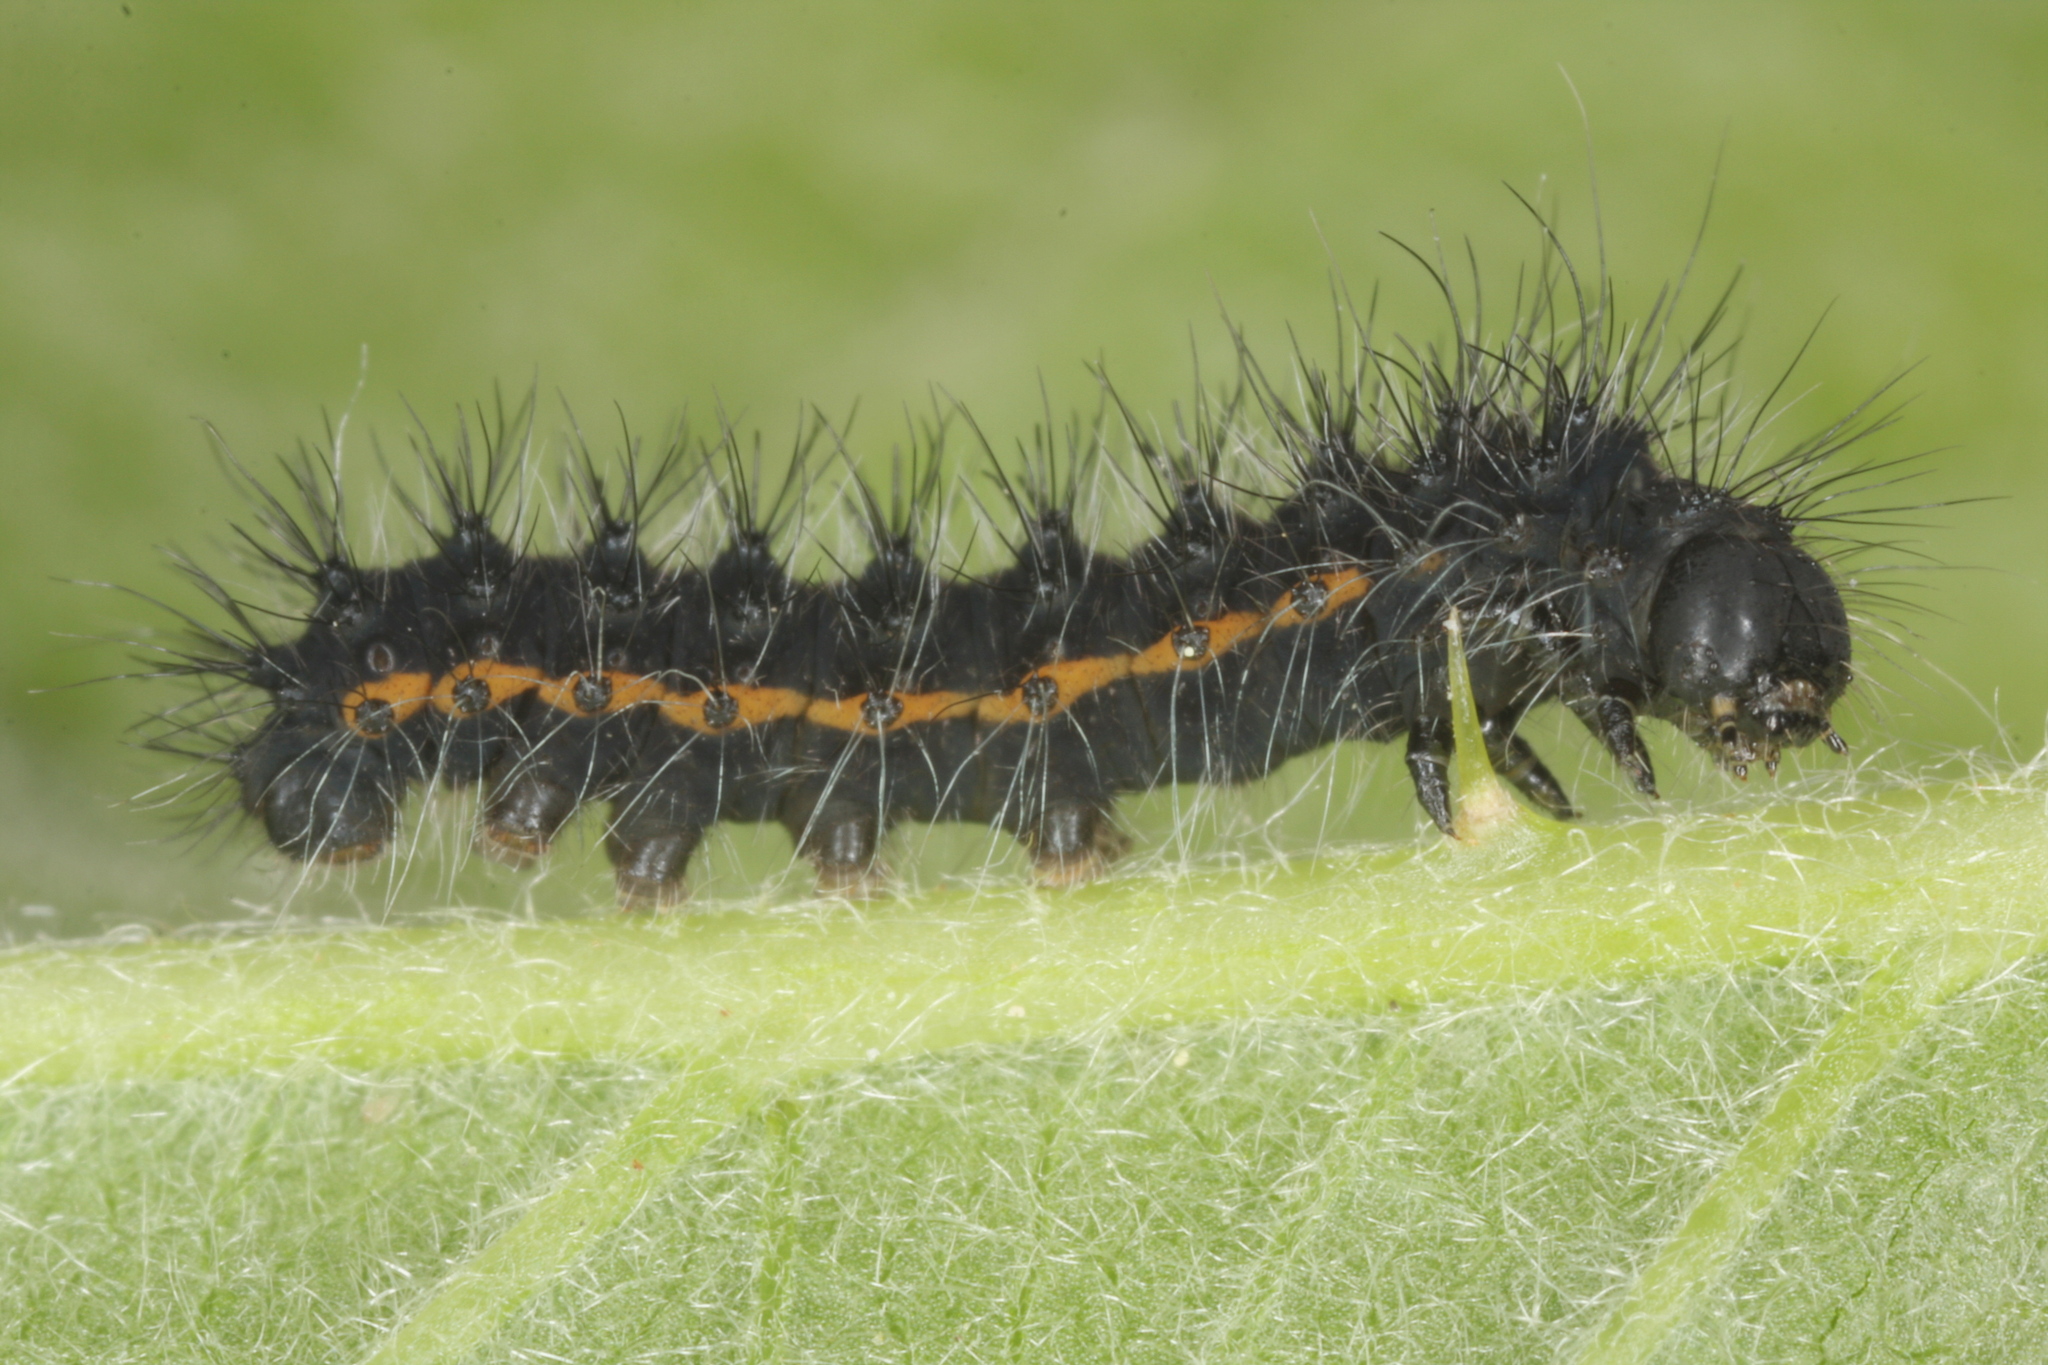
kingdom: Animalia
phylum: Arthropoda
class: Insecta
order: Lepidoptera
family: Saturniidae
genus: Saturnia
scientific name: Saturnia pavonia
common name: Emperor moth
